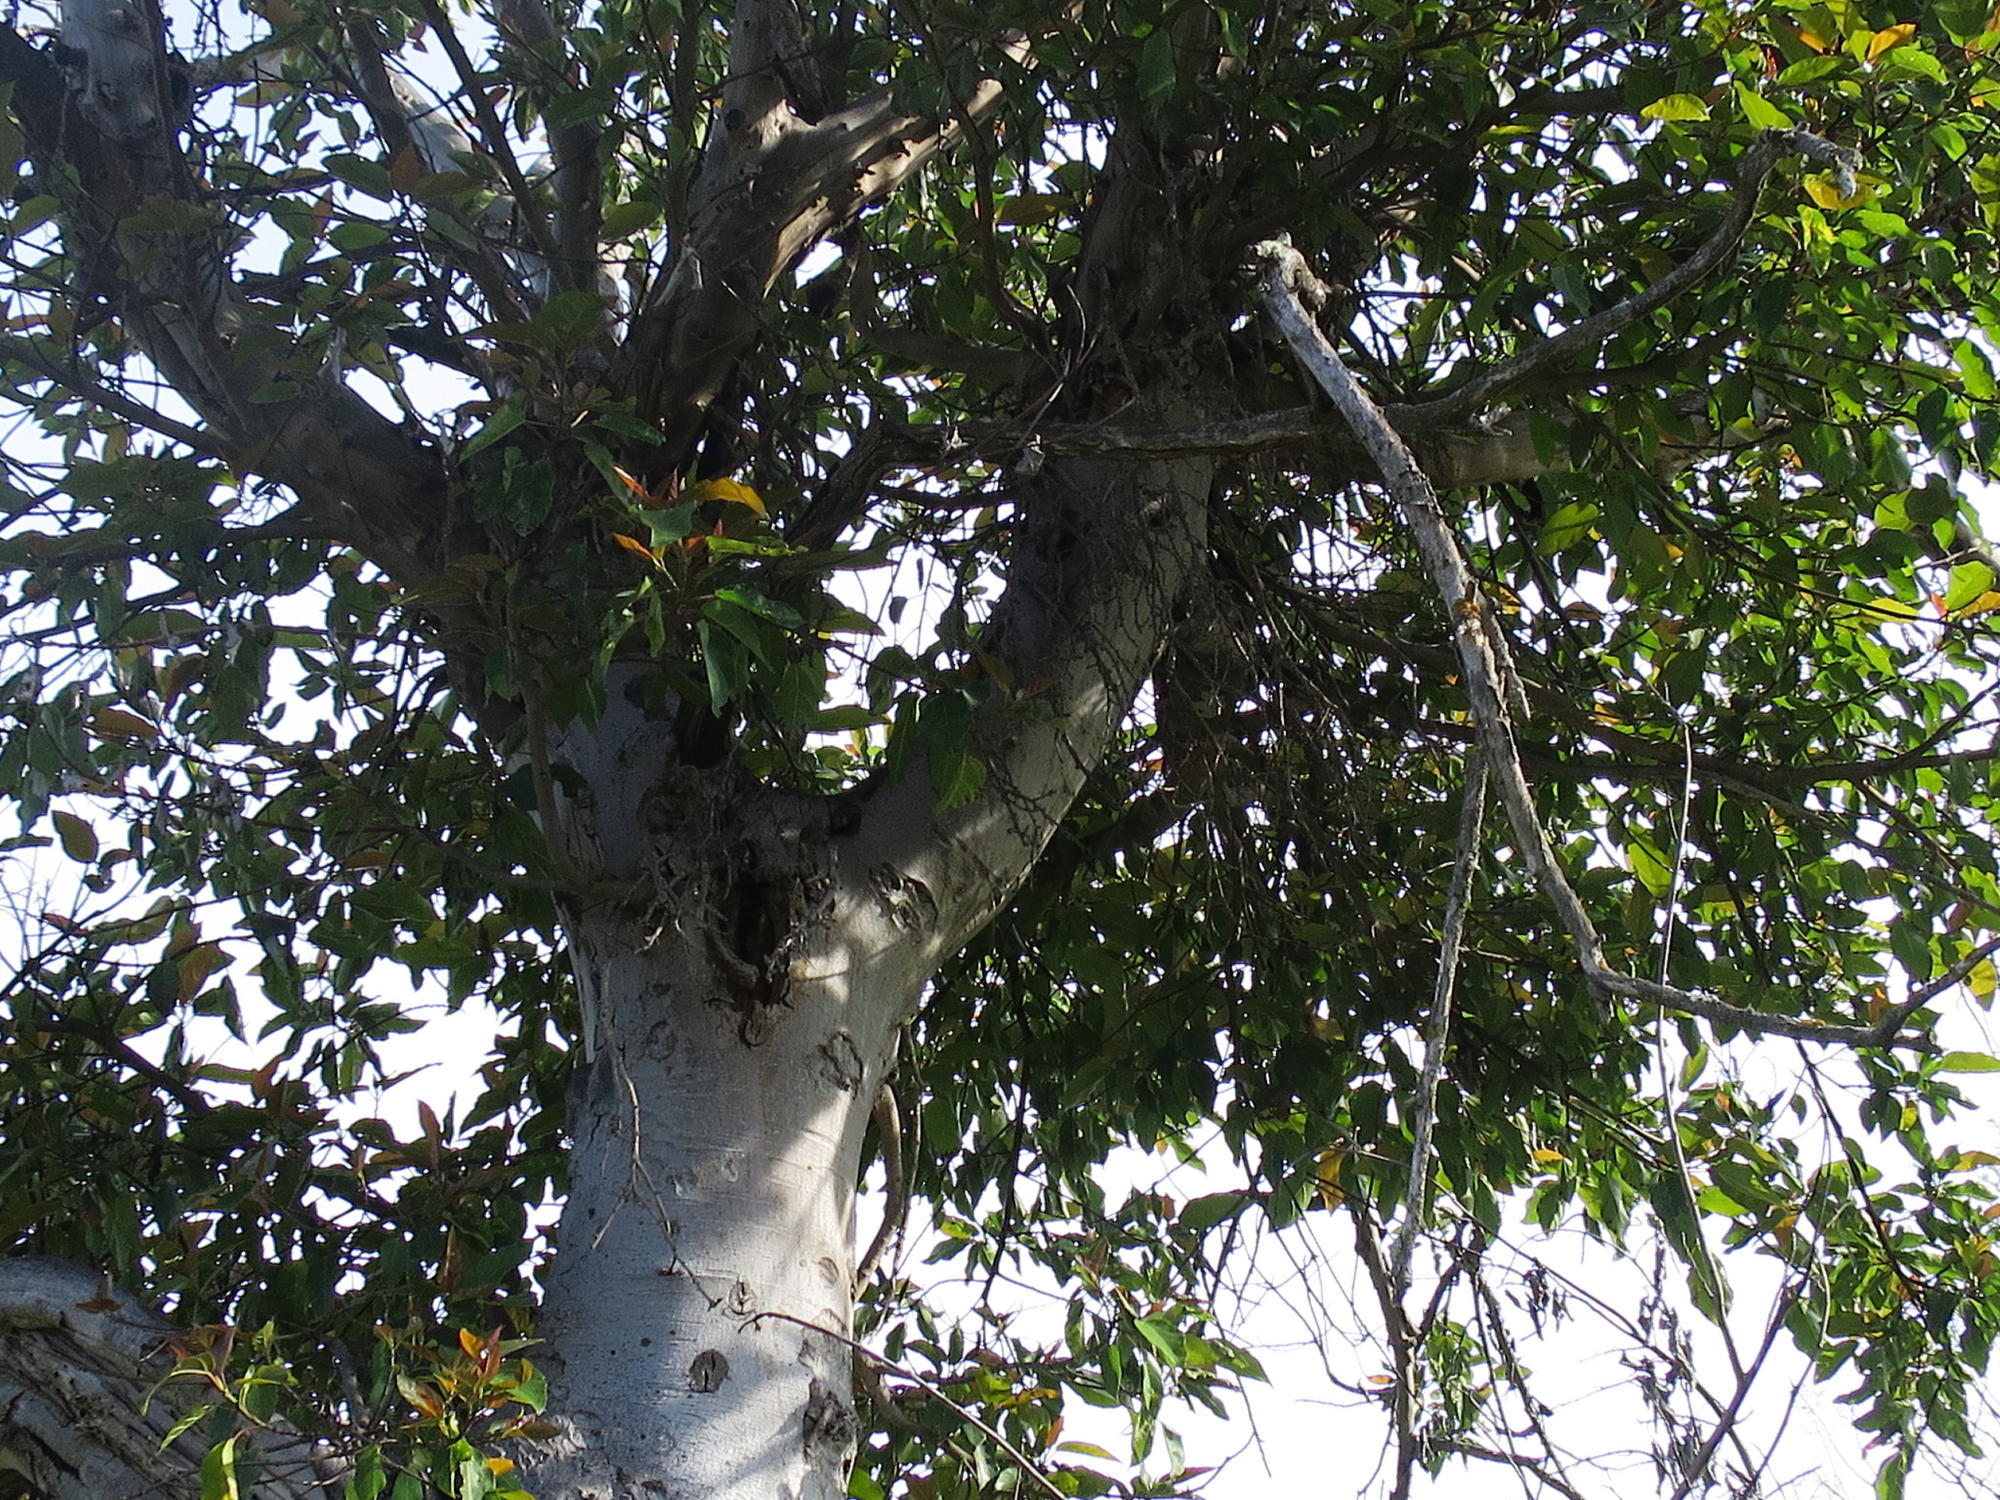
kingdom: Plantae
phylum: Tracheophyta
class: Magnoliopsida
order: Rosales
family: Moraceae
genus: Ficus
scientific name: Ficus sur
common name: Cape fig
